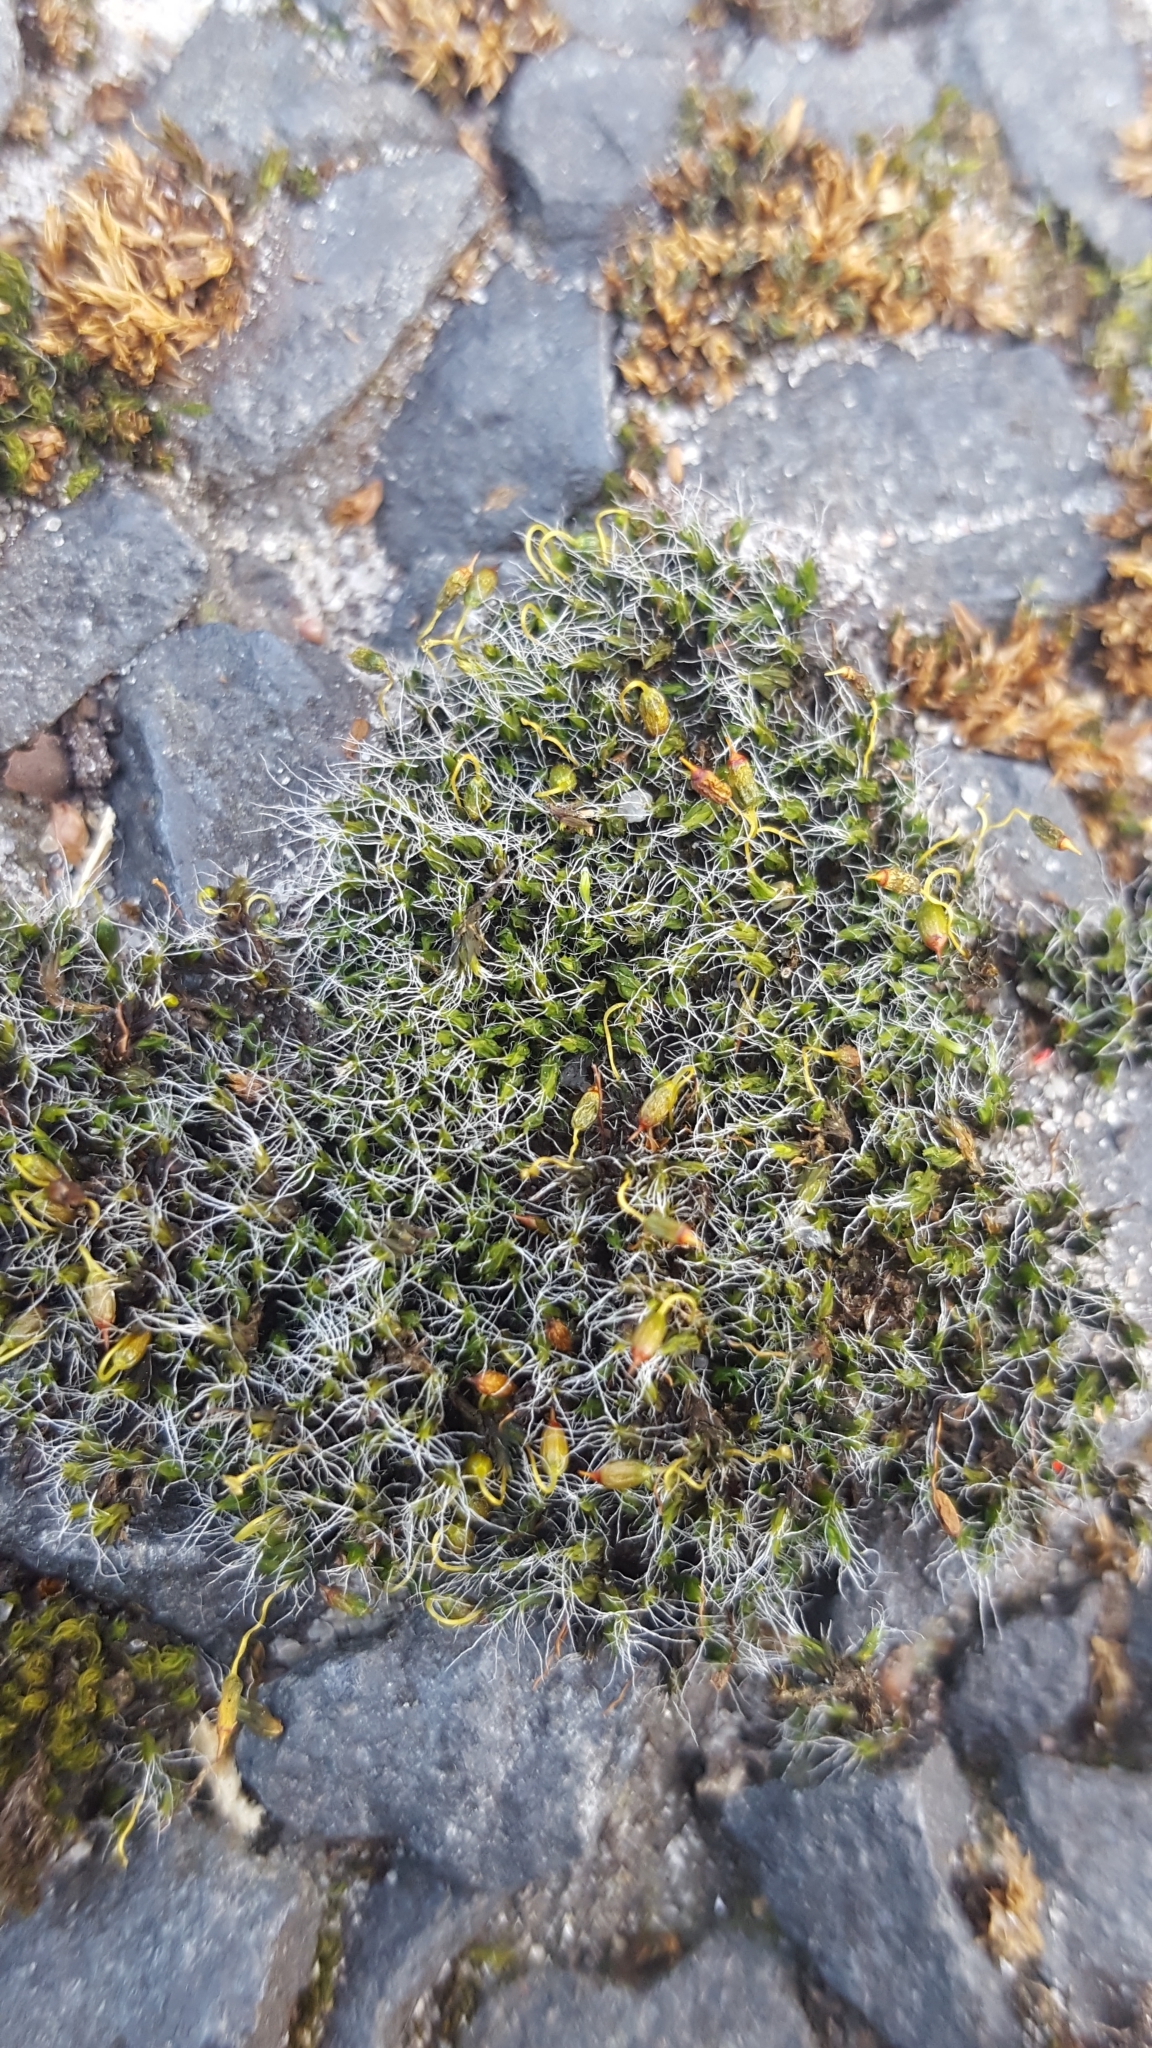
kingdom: Plantae
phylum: Bryophyta
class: Bryopsida
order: Grimmiales
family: Grimmiaceae
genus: Grimmia
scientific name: Grimmia pulvinata
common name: Grey-cushioned grimmia
